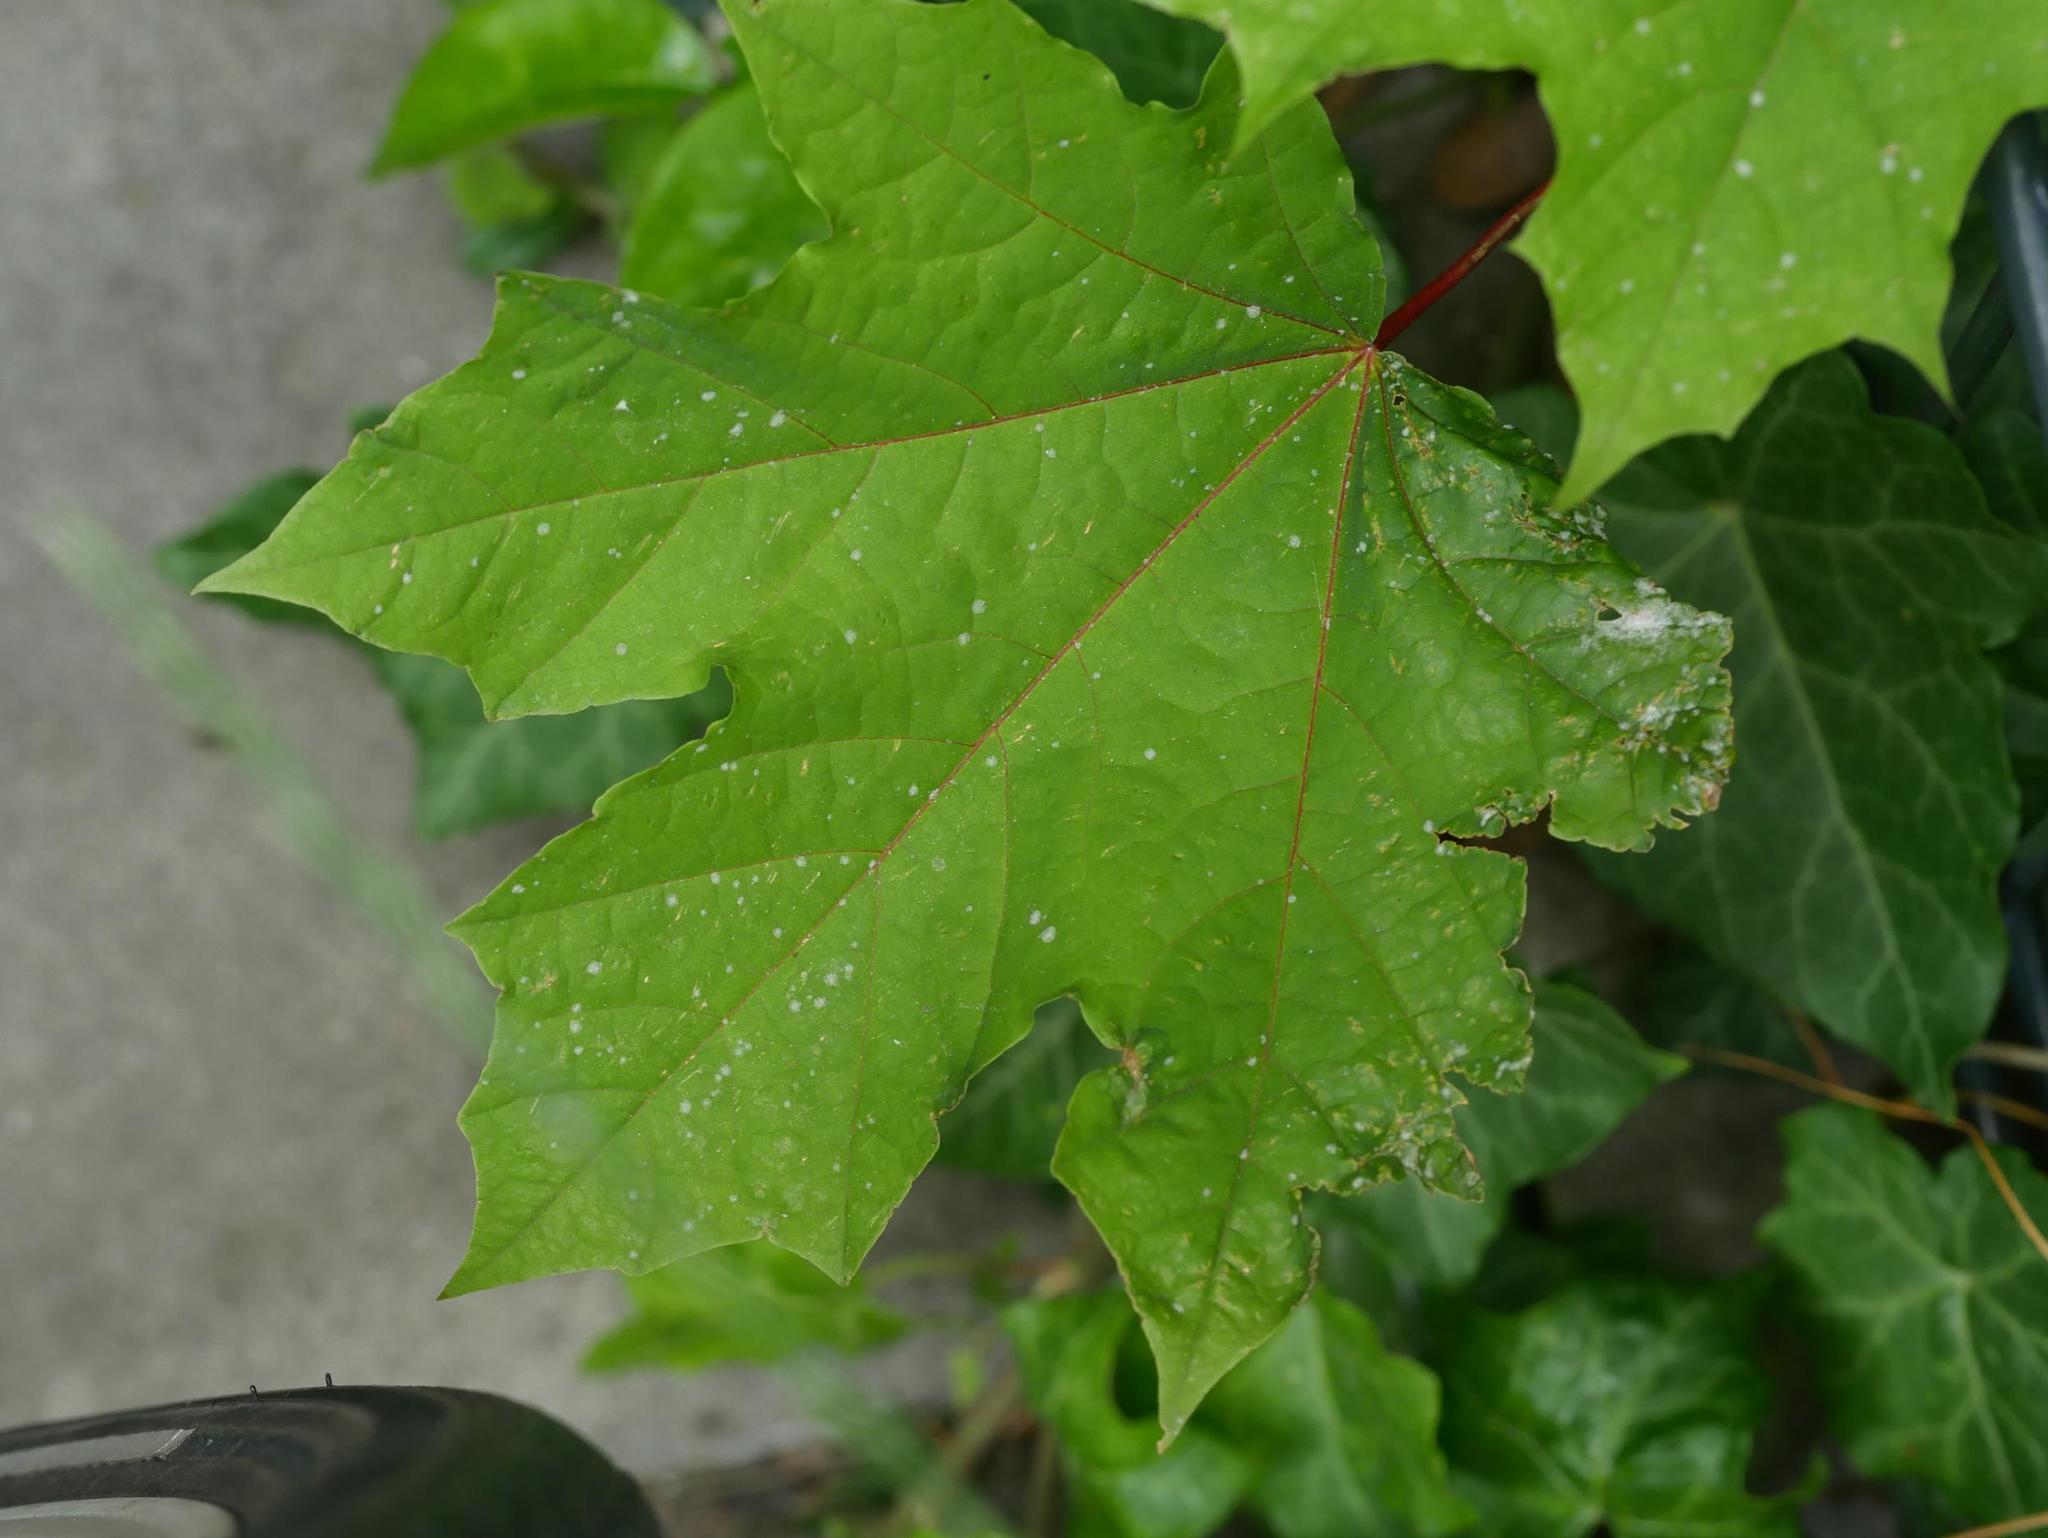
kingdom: Plantae
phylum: Tracheophyta
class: Magnoliopsida
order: Sapindales
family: Sapindaceae
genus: Acer
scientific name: Acer platanoides
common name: Norway maple
